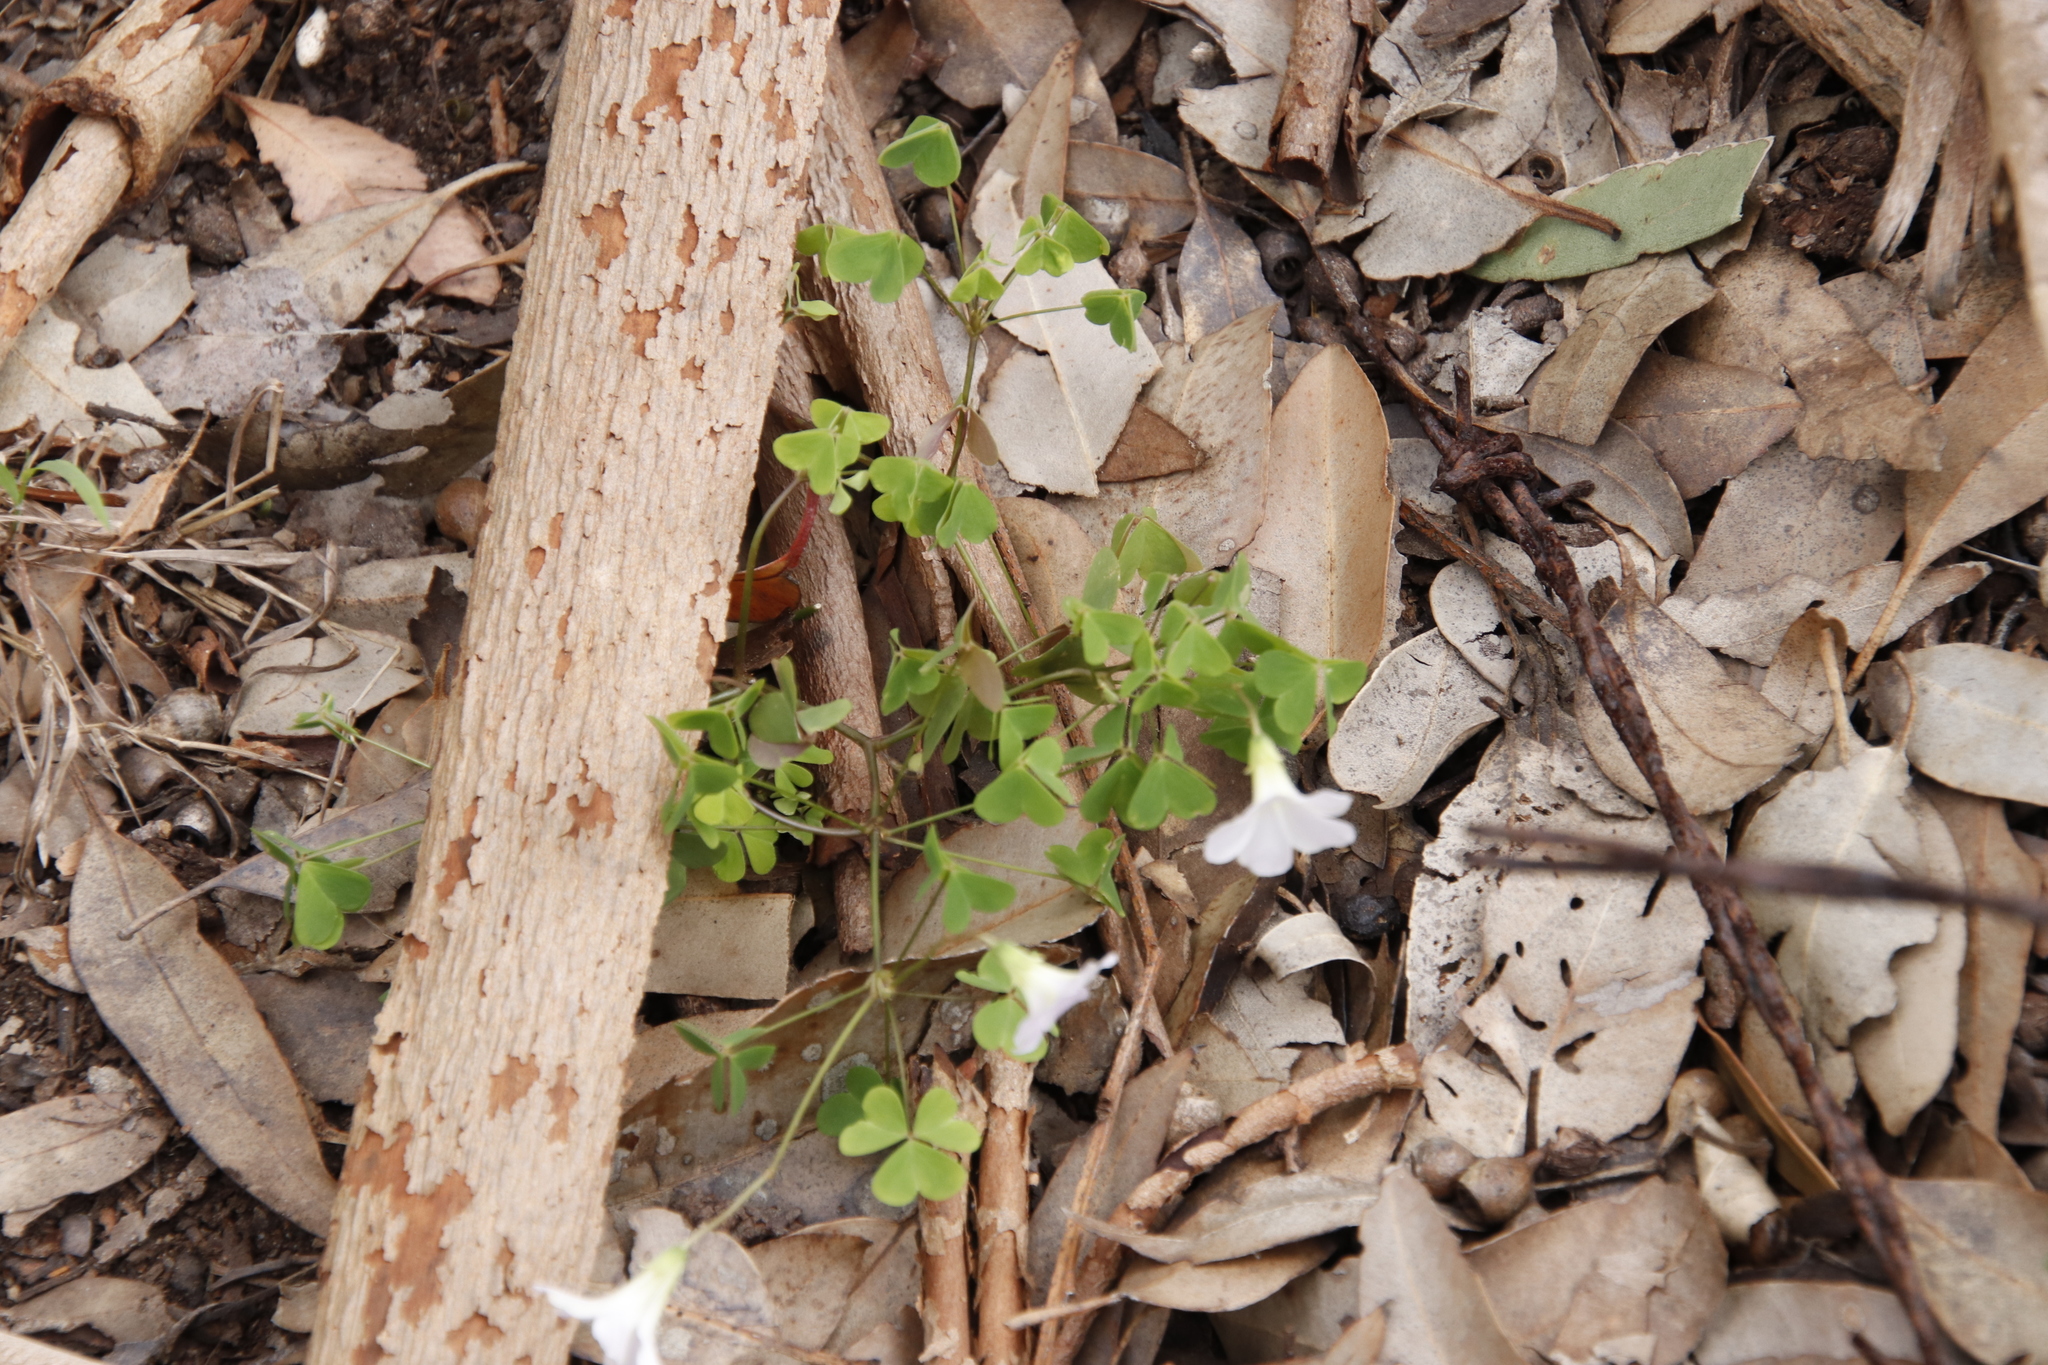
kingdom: Plantae
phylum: Tracheophyta
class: Magnoliopsida
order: Oxalidales
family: Oxalidaceae
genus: Oxalis
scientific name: Oxalis incarnata
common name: Pale pink-sorrel
